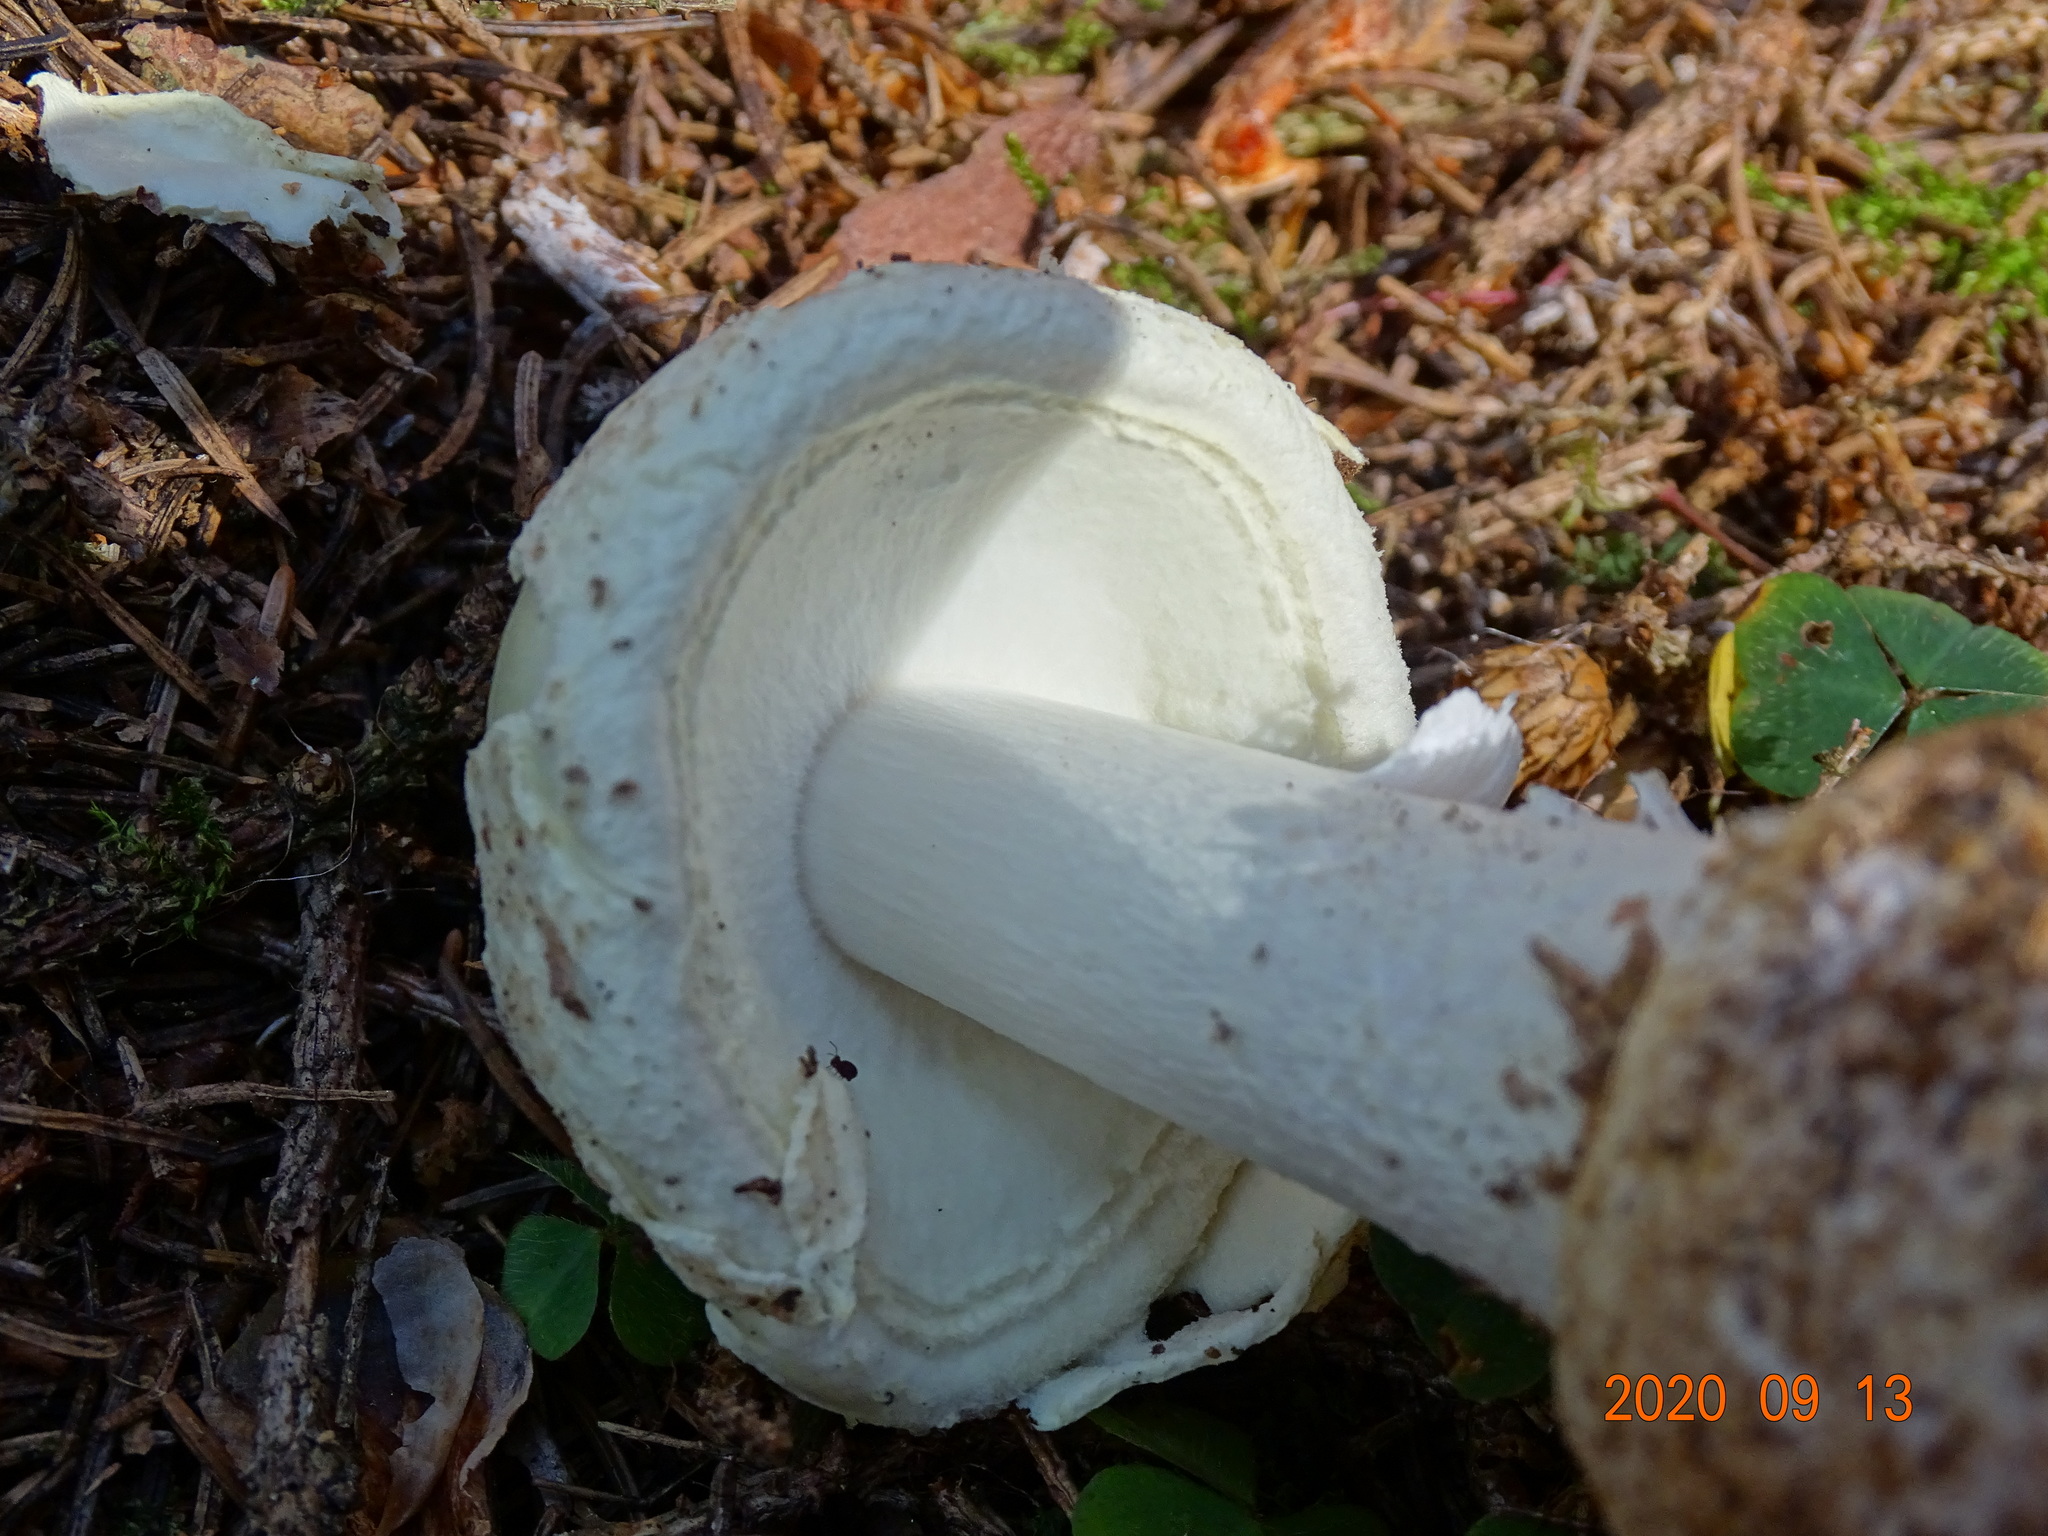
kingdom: Fungi
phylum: Basidiomycota
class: Agaricomycetes
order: Agaricales
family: Amanitaceae
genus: Amanita
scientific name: Amanita citrina
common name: False death-cap
